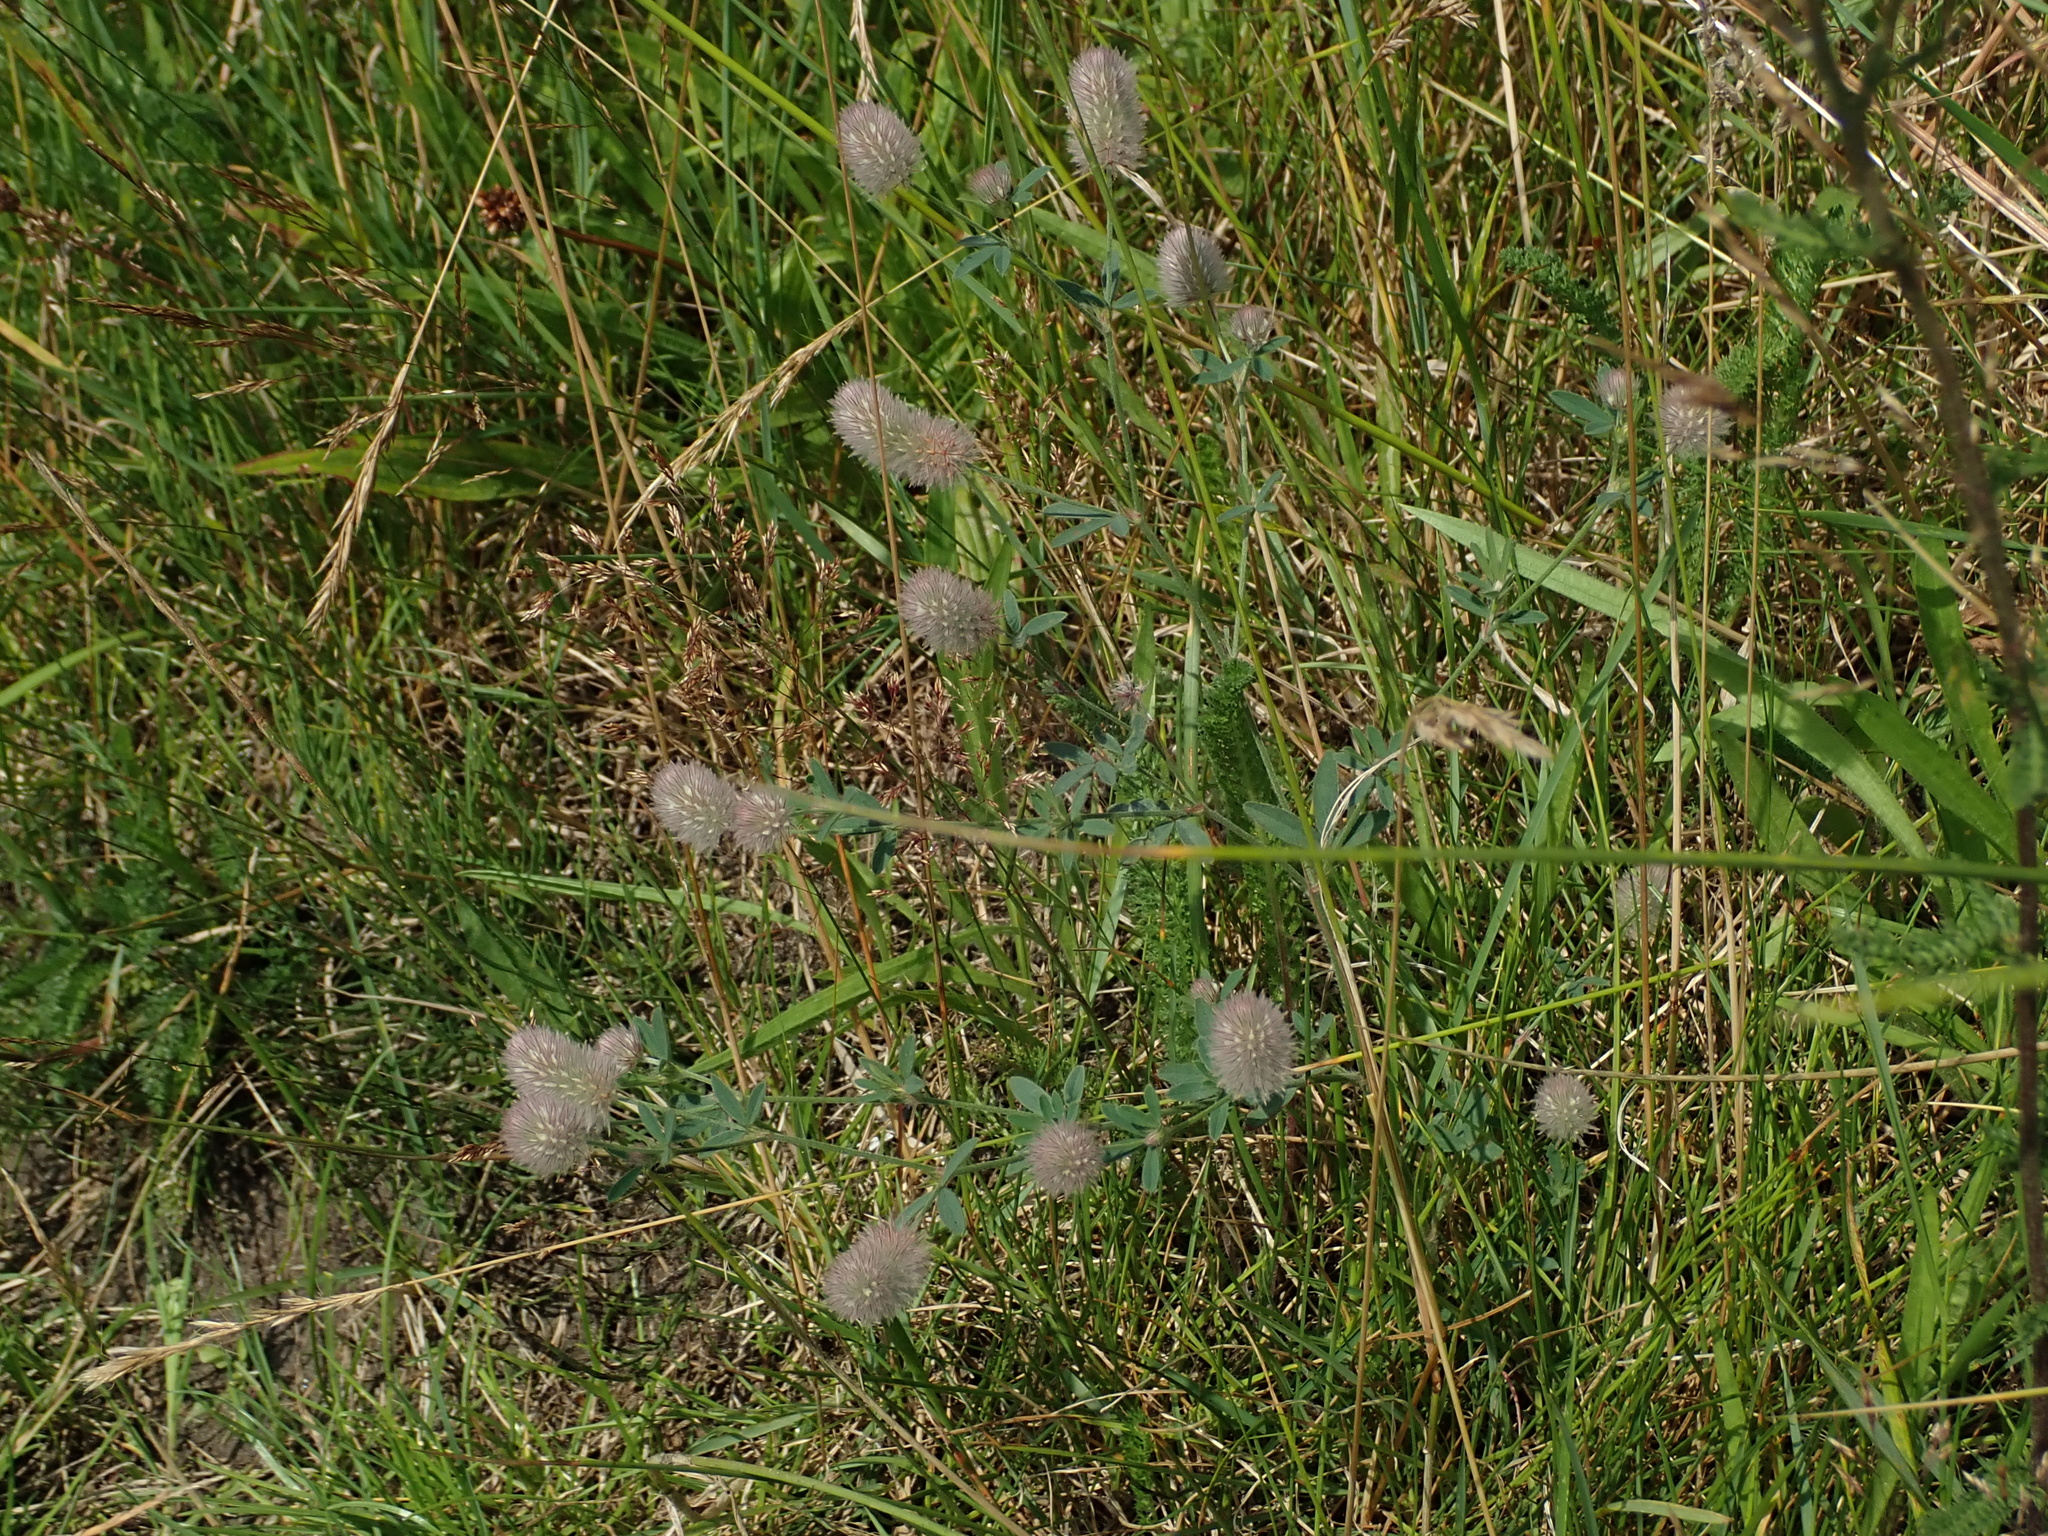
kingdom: Plantae
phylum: Tracheophyta
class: Magnoliopsida
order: Fabales
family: Fabaceae
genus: Trifolium
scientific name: Trifolium arvense
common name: Hare's-foot clover
